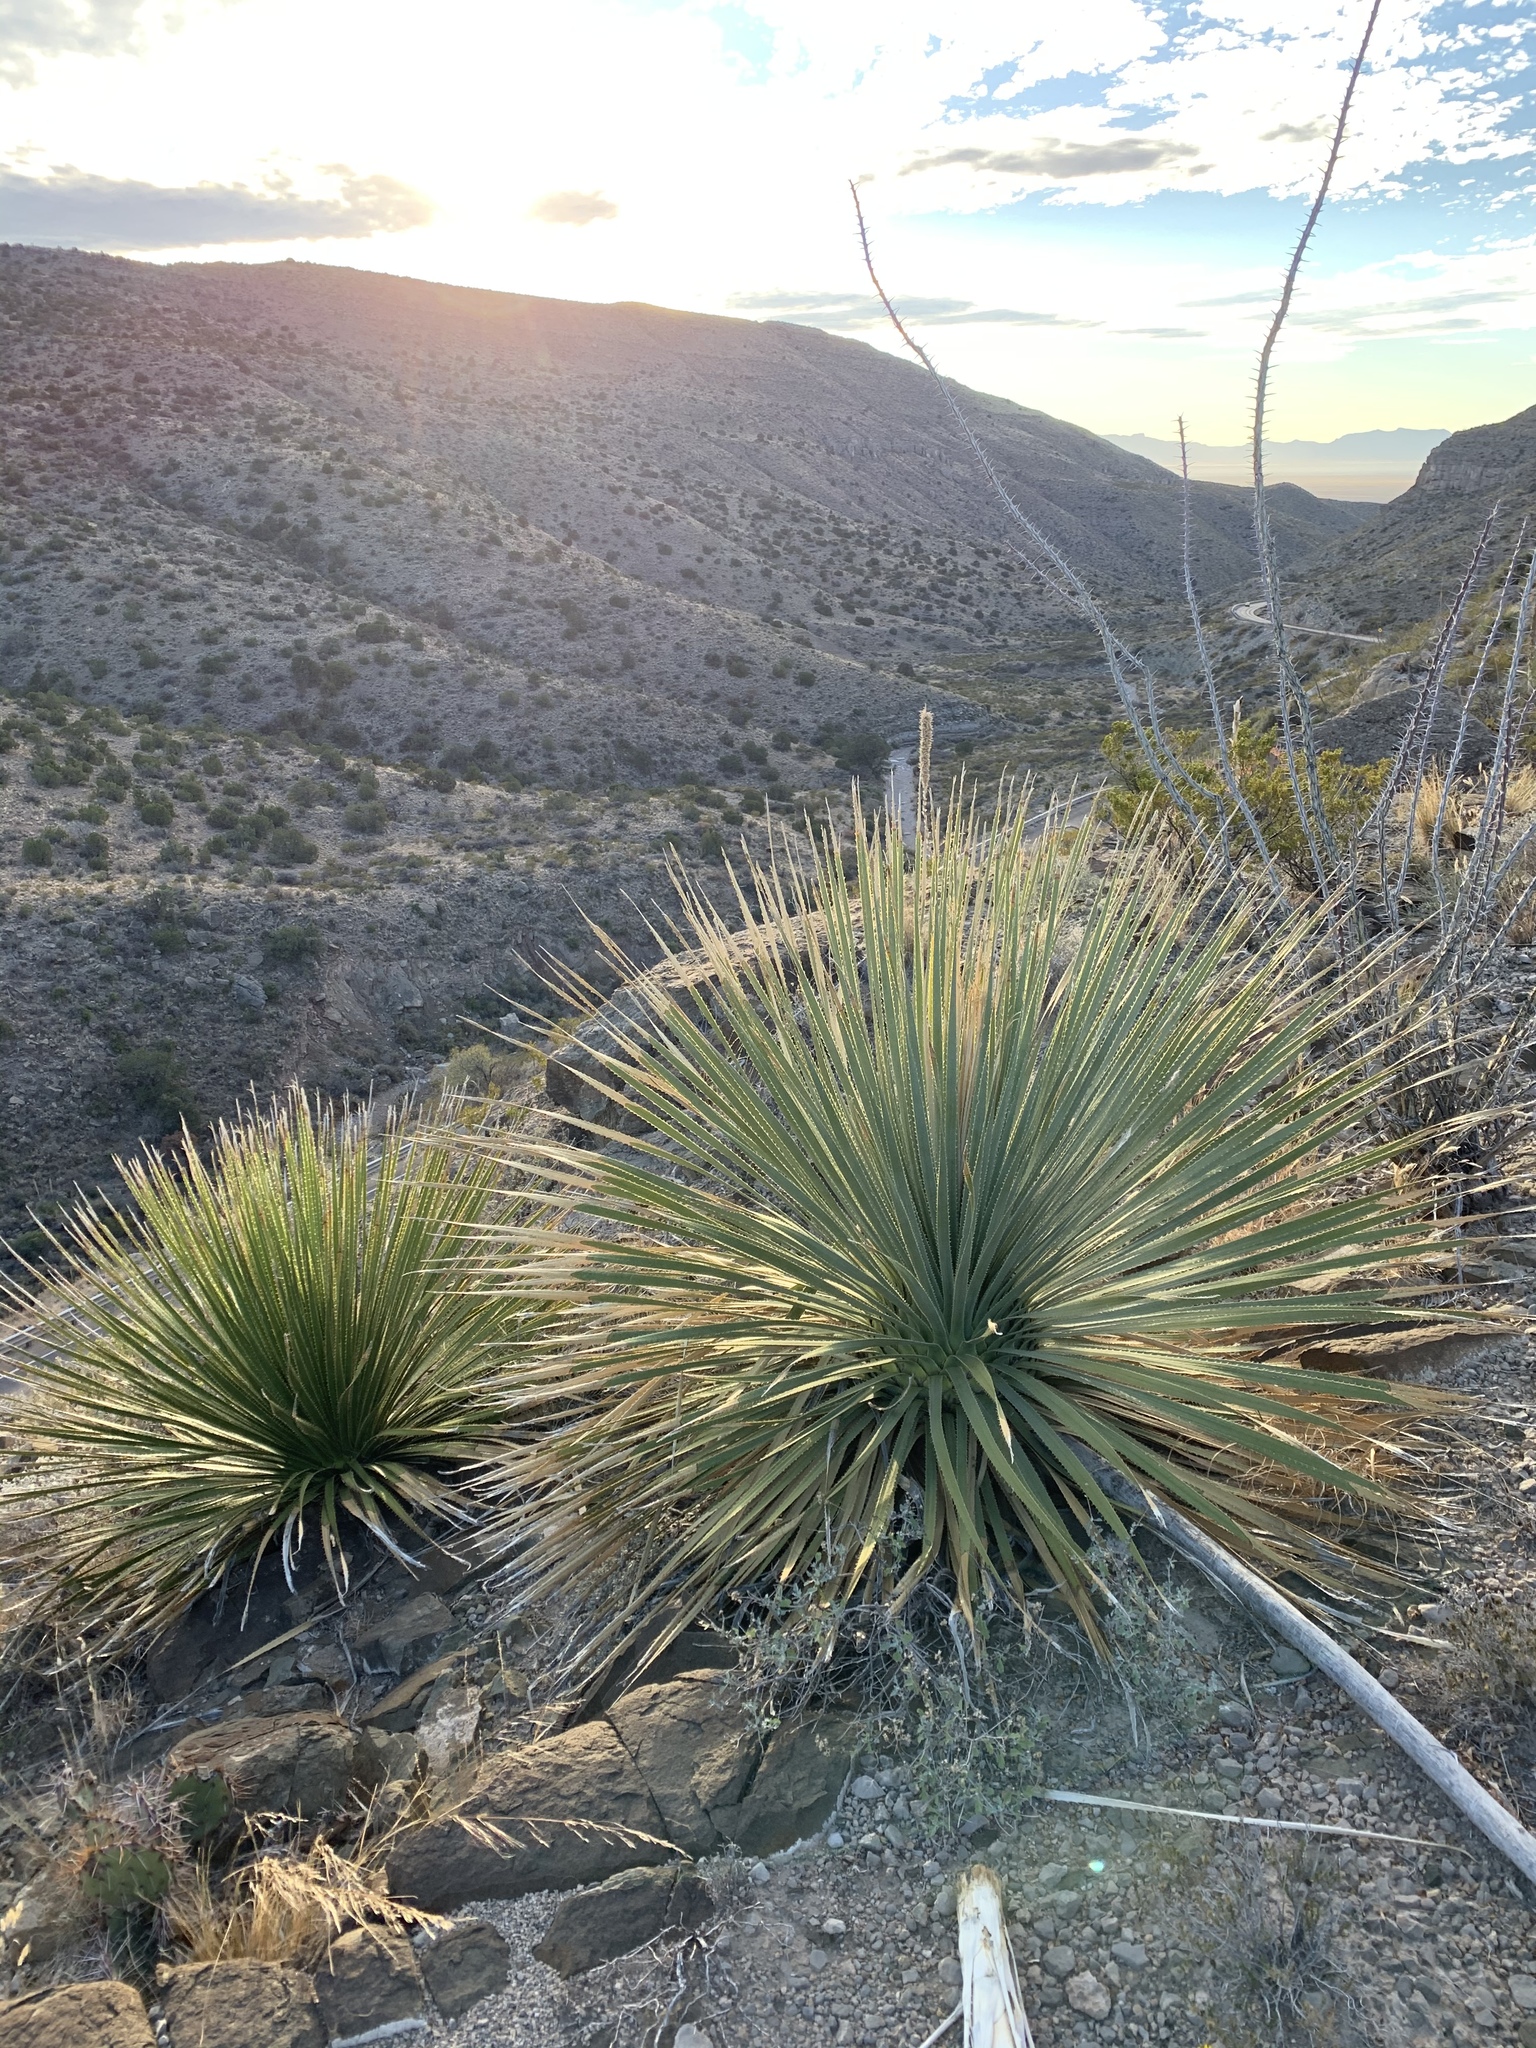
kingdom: Plantae
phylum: Tracheophyta
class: Liliopsida
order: Asparagales
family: Asparagaceae
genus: Dasylirion
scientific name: Dasylirion wheeleri
